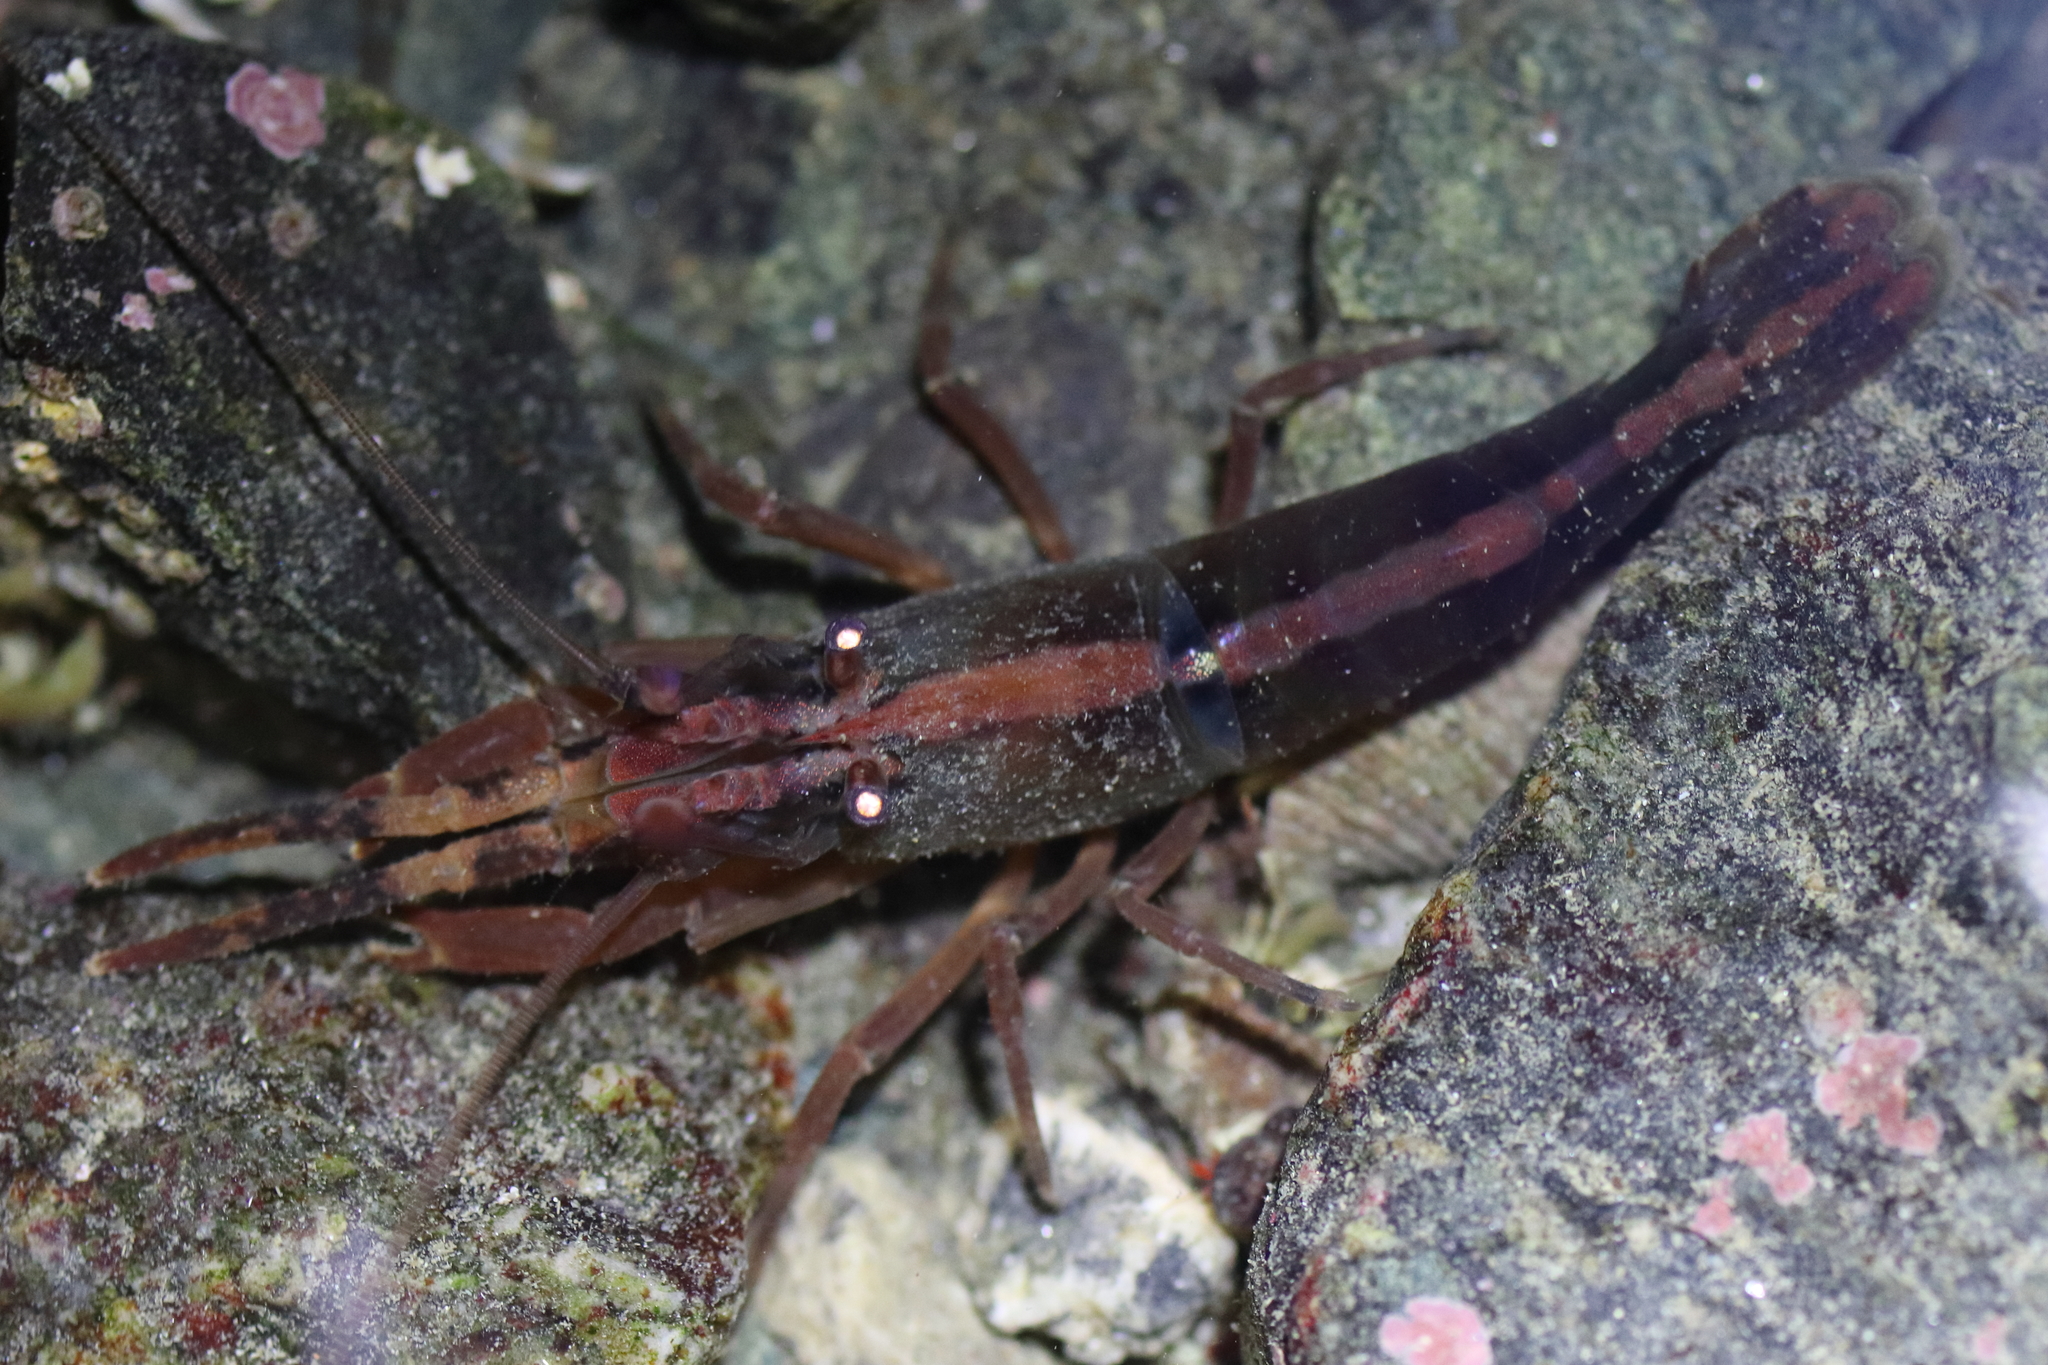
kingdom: Animalia
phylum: Arthropoda
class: Malacostraca
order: Decapoda
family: Thoridae
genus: Heptacarpus
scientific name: Heptacarpus brevirostris
